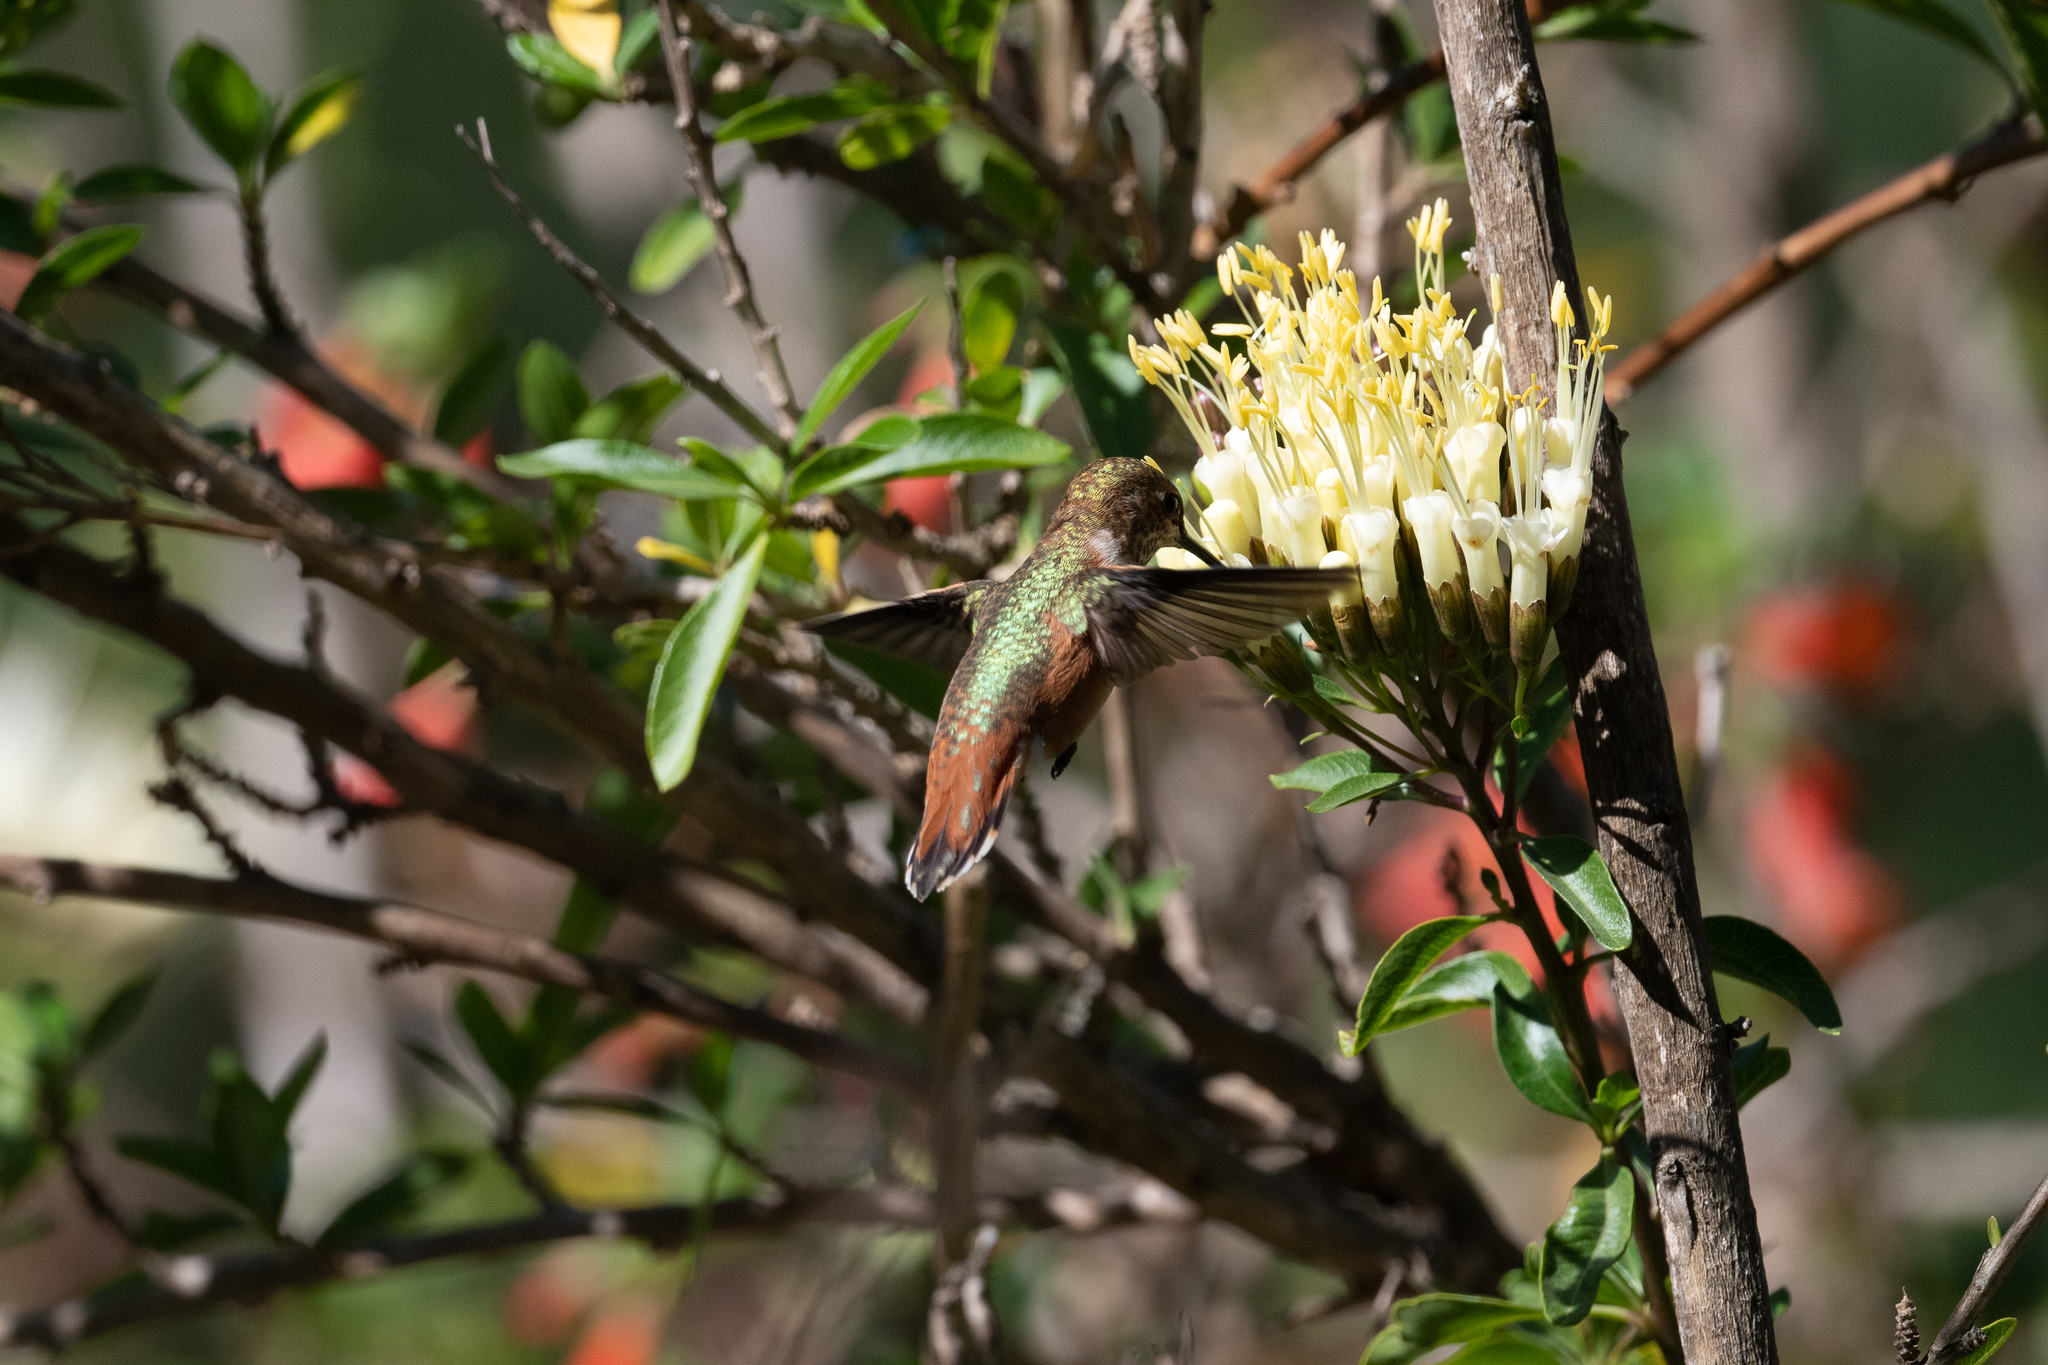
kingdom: Animalia
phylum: Chordata
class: Aves
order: Apodiformes
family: Trochilidae
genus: Selasphorus
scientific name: Selasphorus
